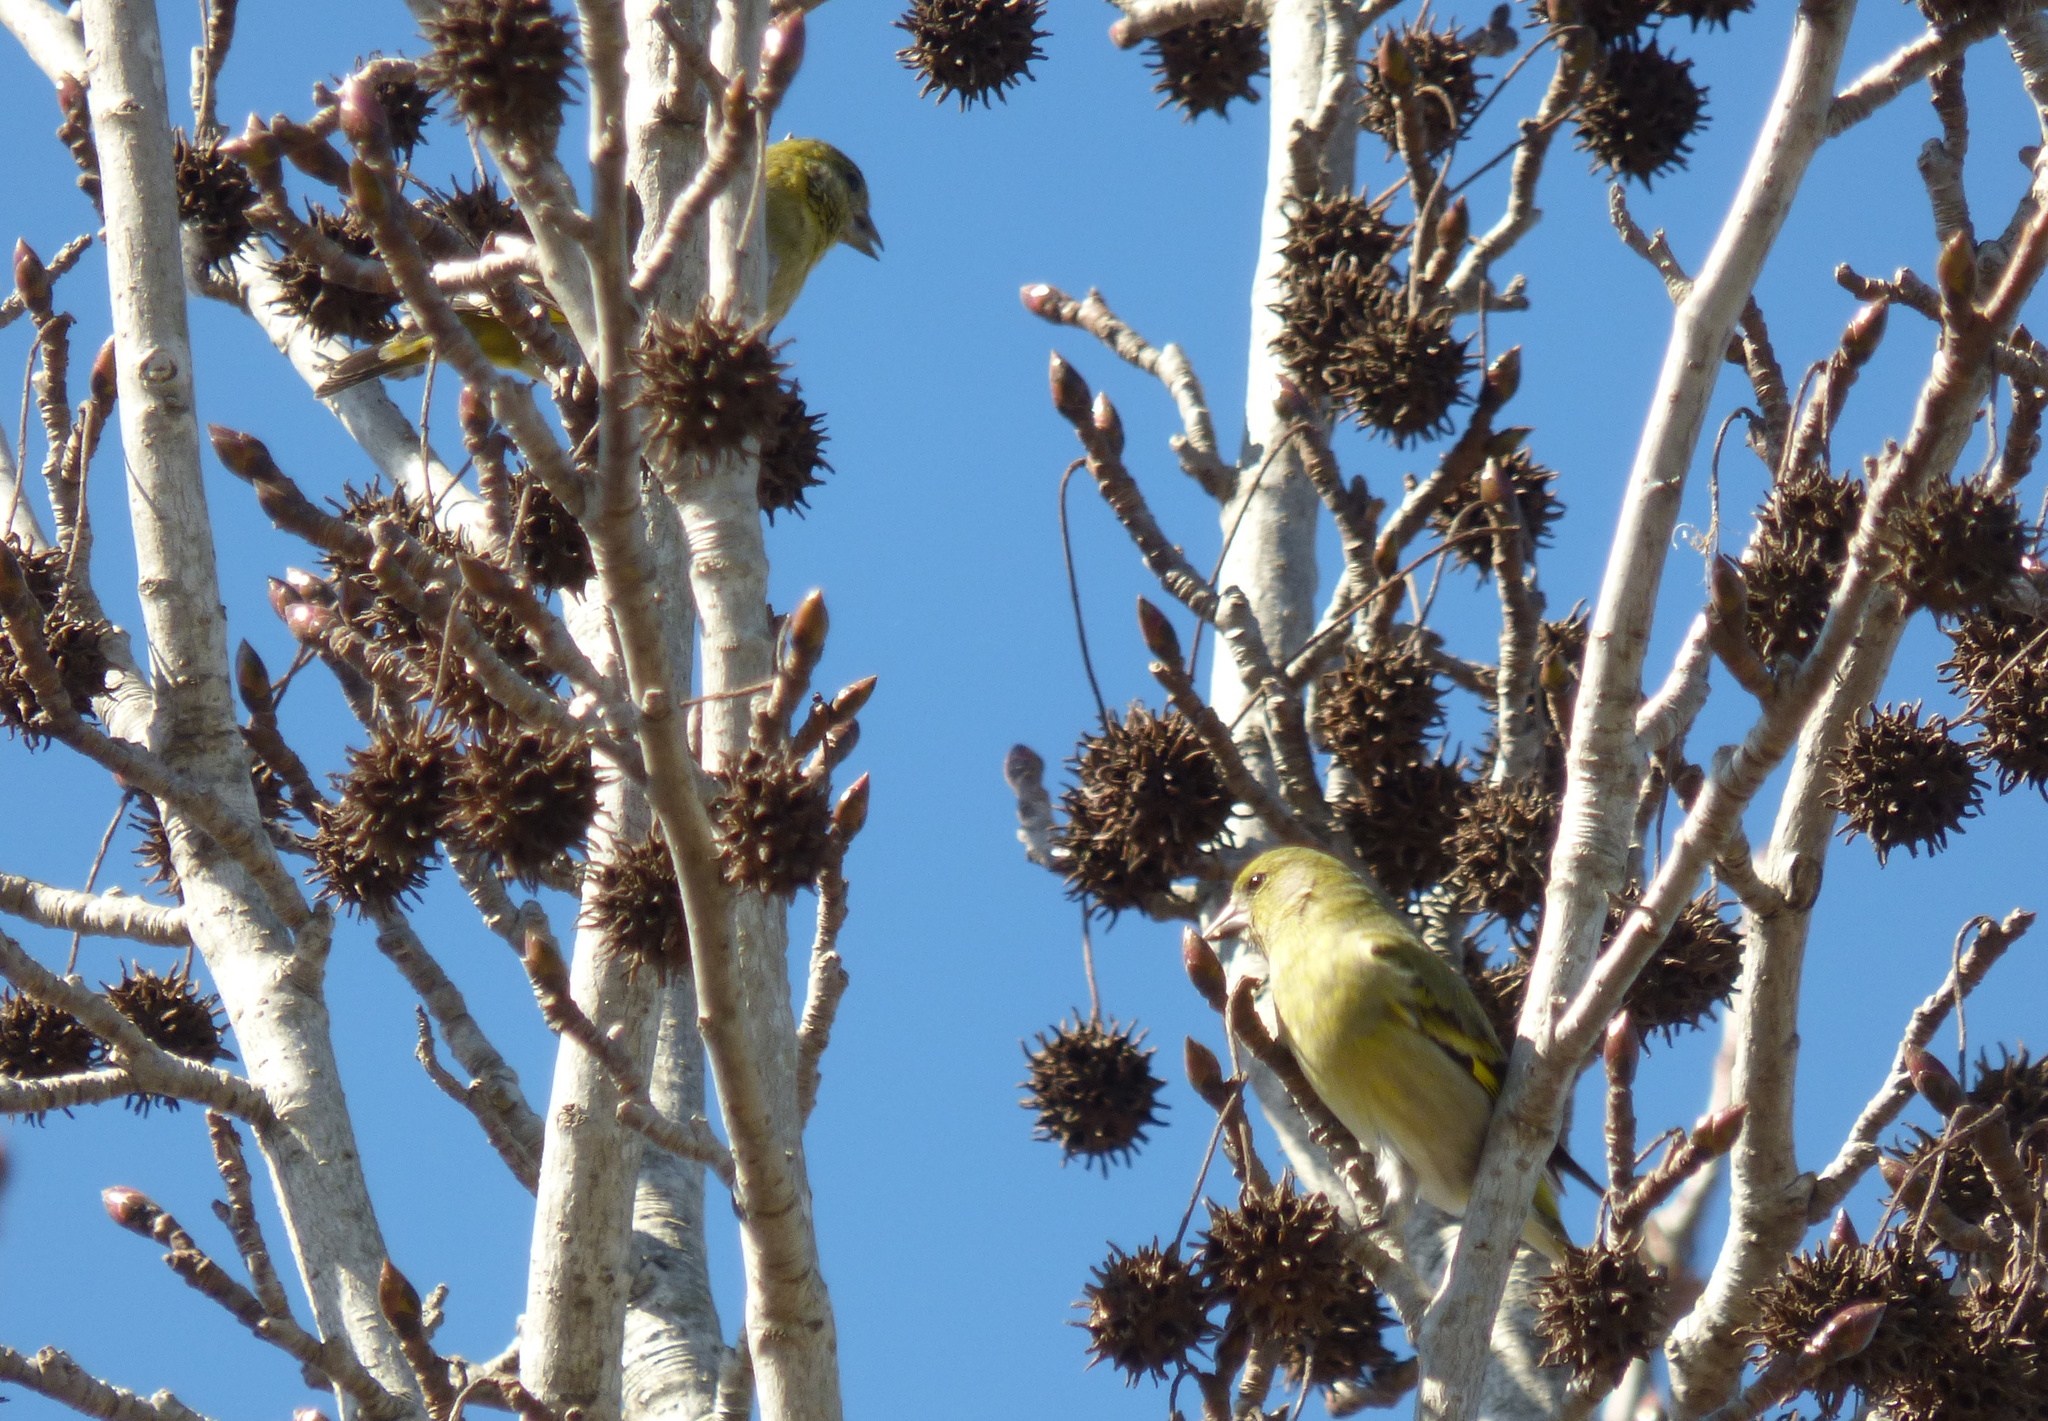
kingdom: Animalia
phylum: Chordata
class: Aves
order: Passeriformes
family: Fringillidae
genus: Spinus
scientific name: Spinus magellanicus
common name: Hooded siskin
